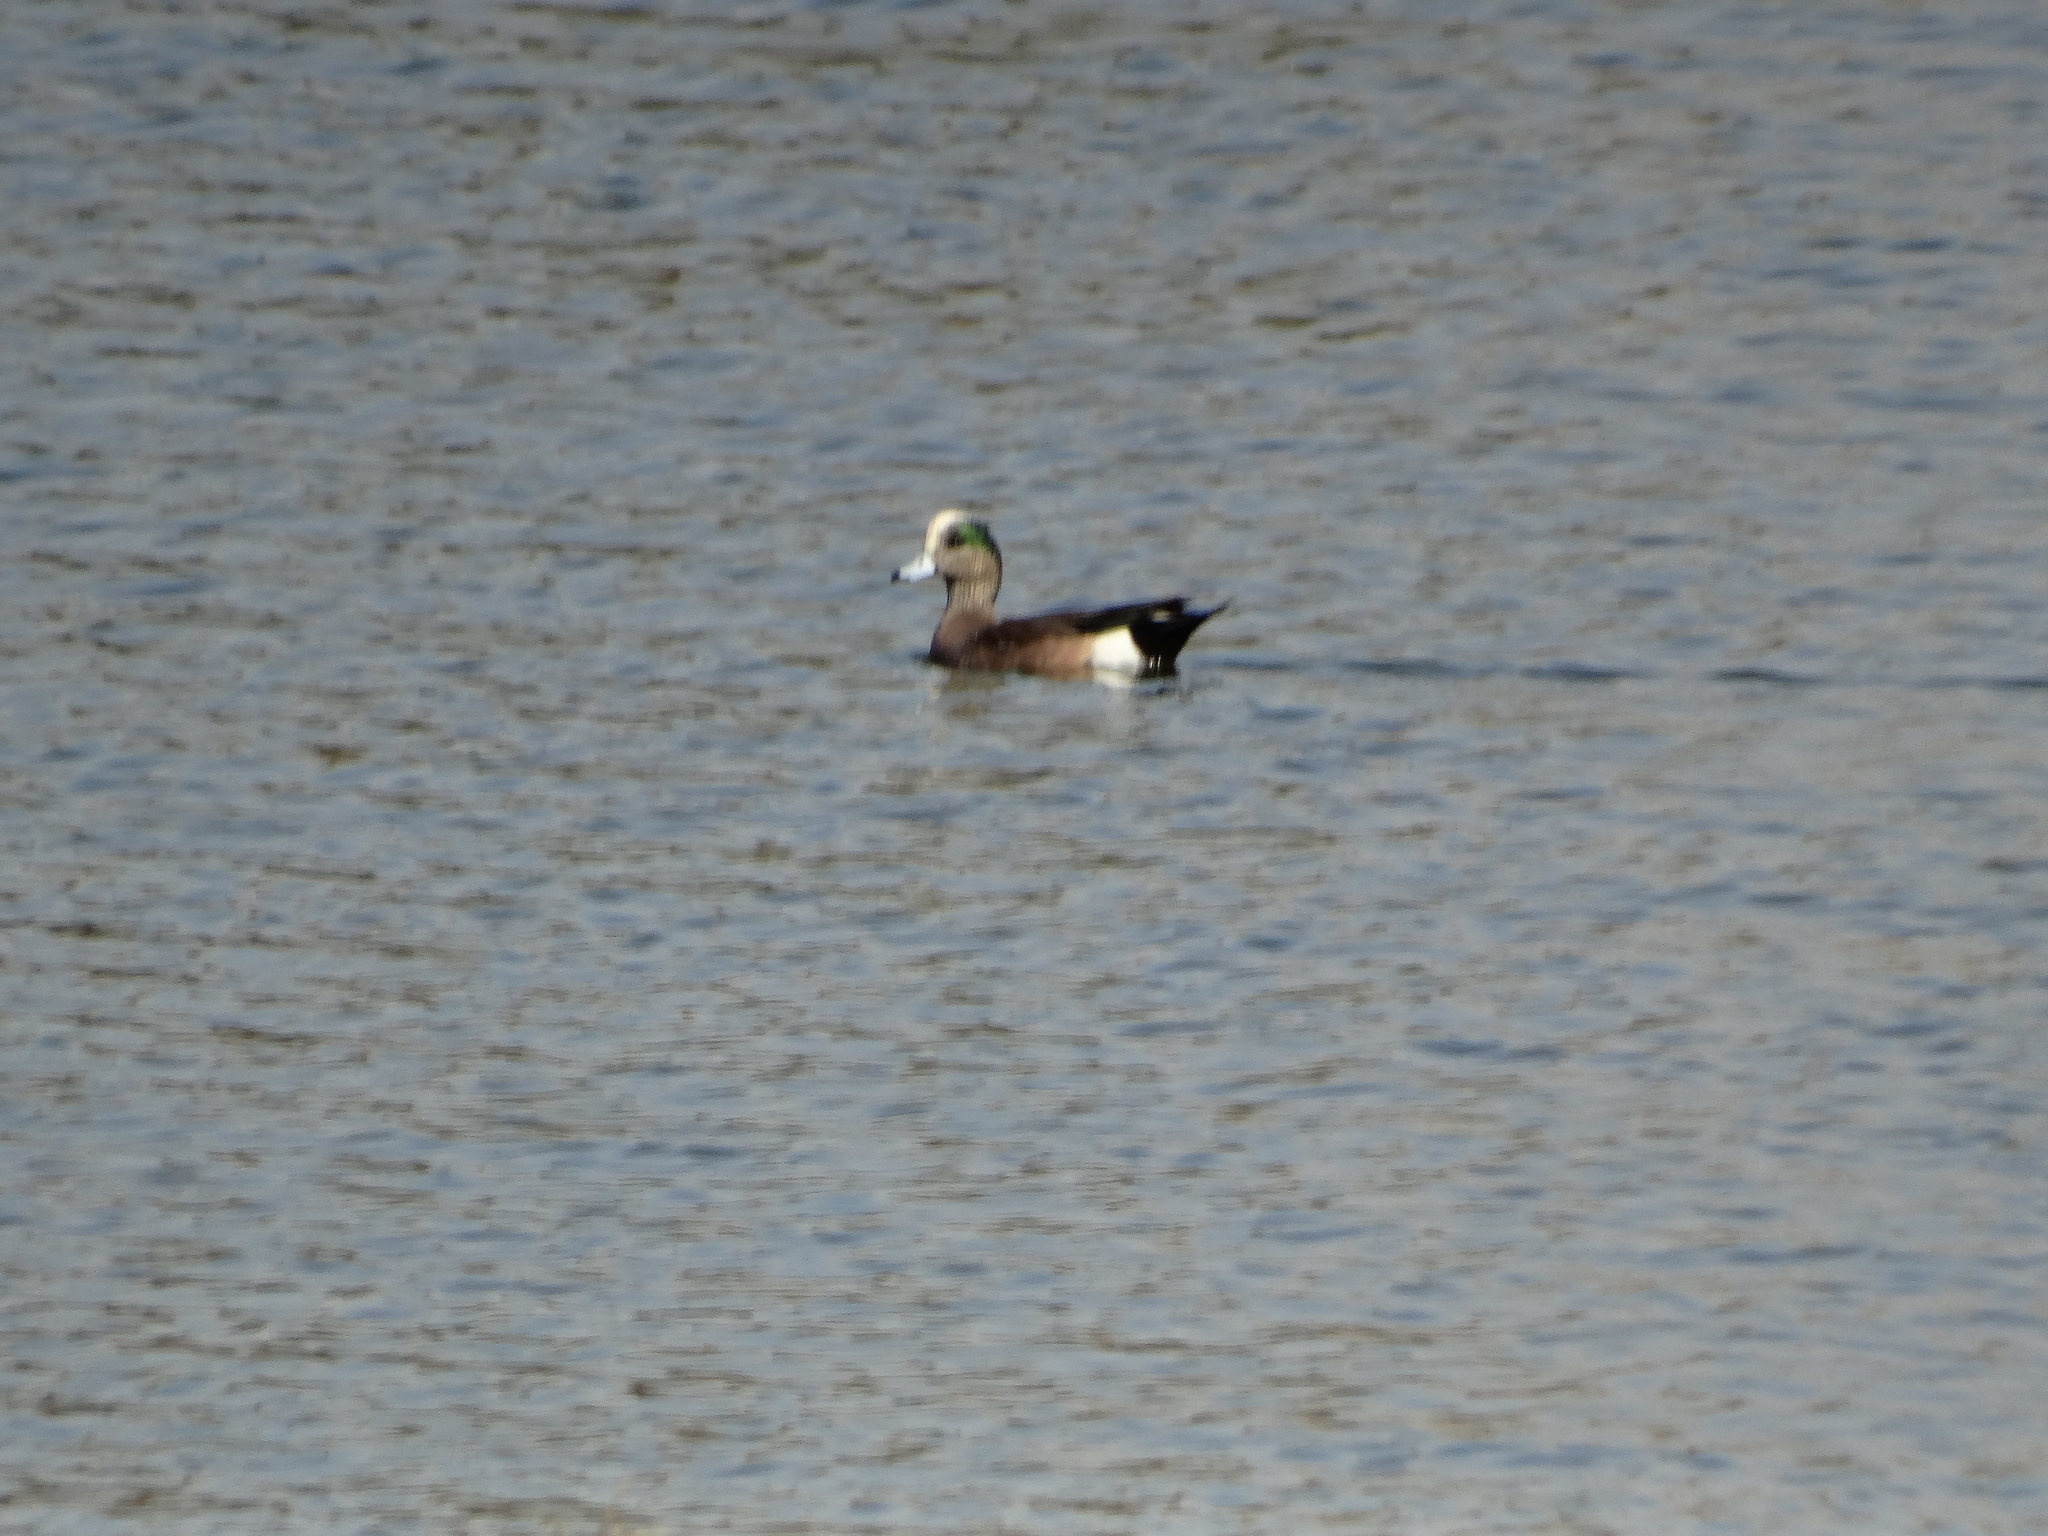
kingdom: Animalia
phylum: Chordata
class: Aves
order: Anseriformes
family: Anatidae
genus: Mareca
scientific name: Mareca americana
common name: American wigeon
